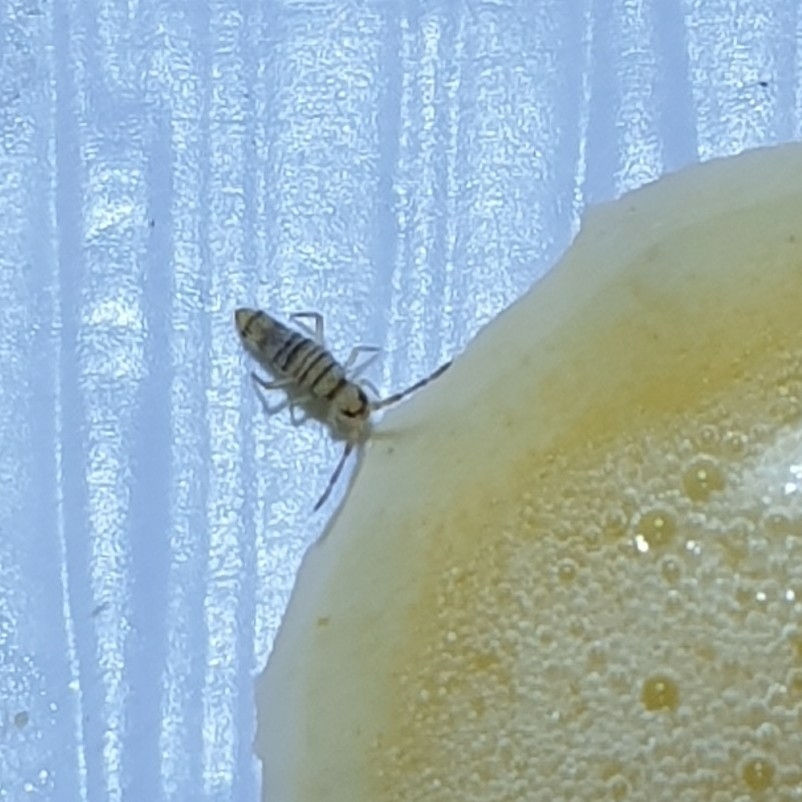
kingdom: Animalia
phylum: Arthropoda
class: Collembola
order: Entomobryomorpha
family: Entomobryidae
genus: Entomobrya
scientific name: Entomobrya multifasciata
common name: Springtail
